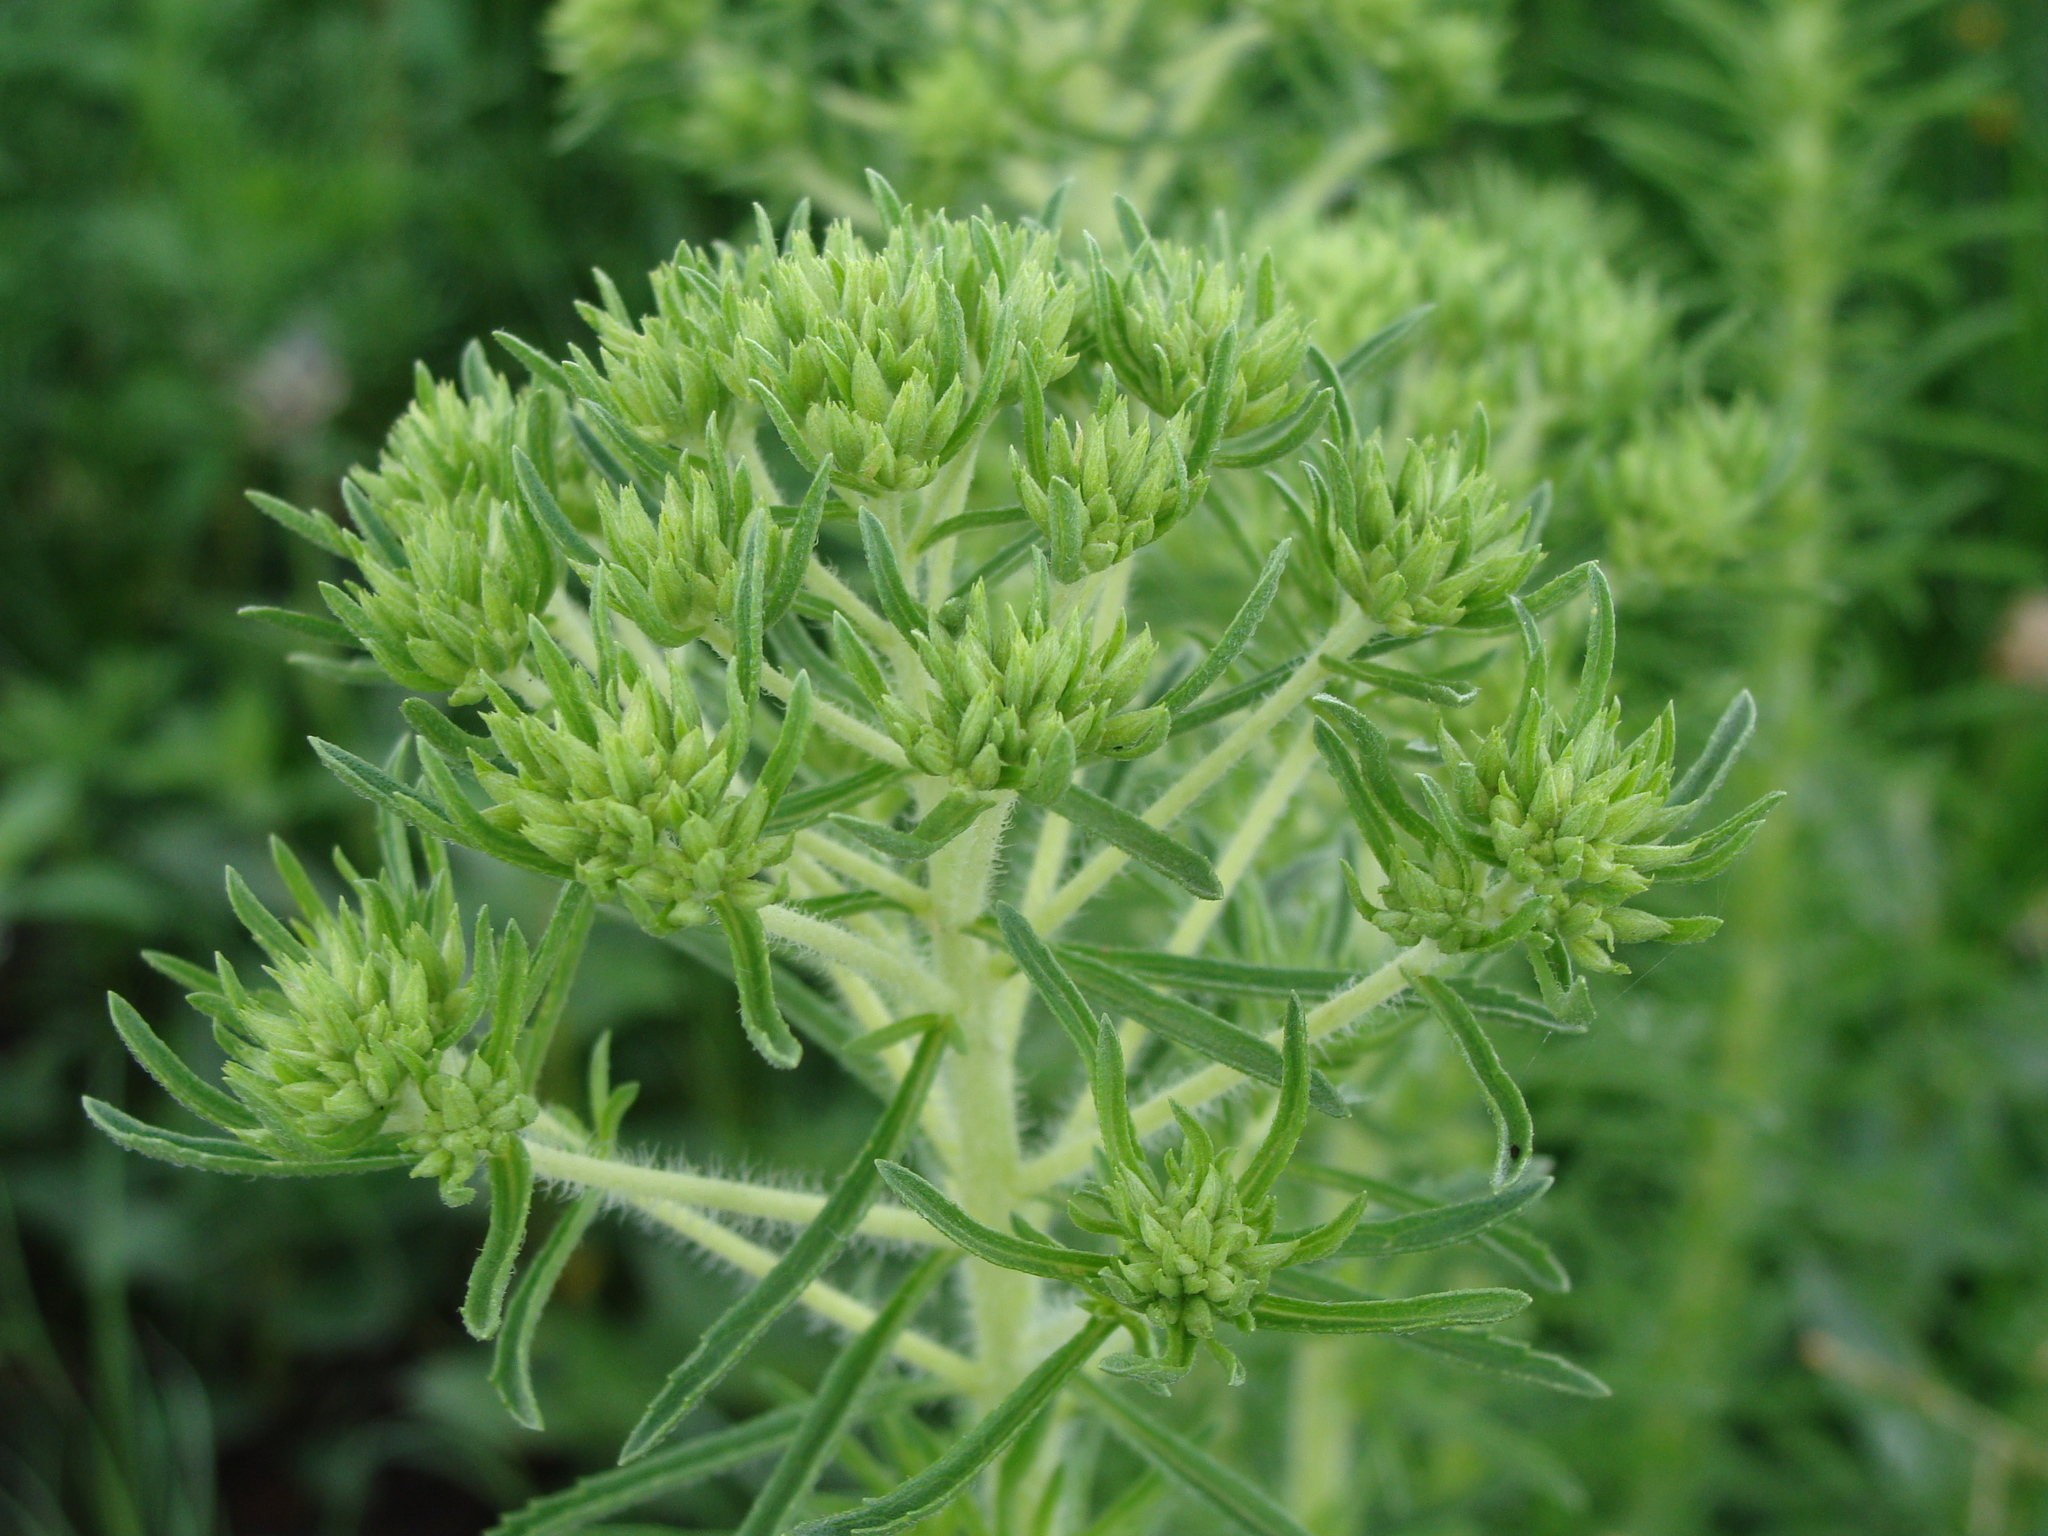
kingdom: Plantae
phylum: Tracheophyta
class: Magnoliopsida
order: Asterales
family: Asteraceae
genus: Stevia
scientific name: Stevia serrata
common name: Sawtooth candyleaf
